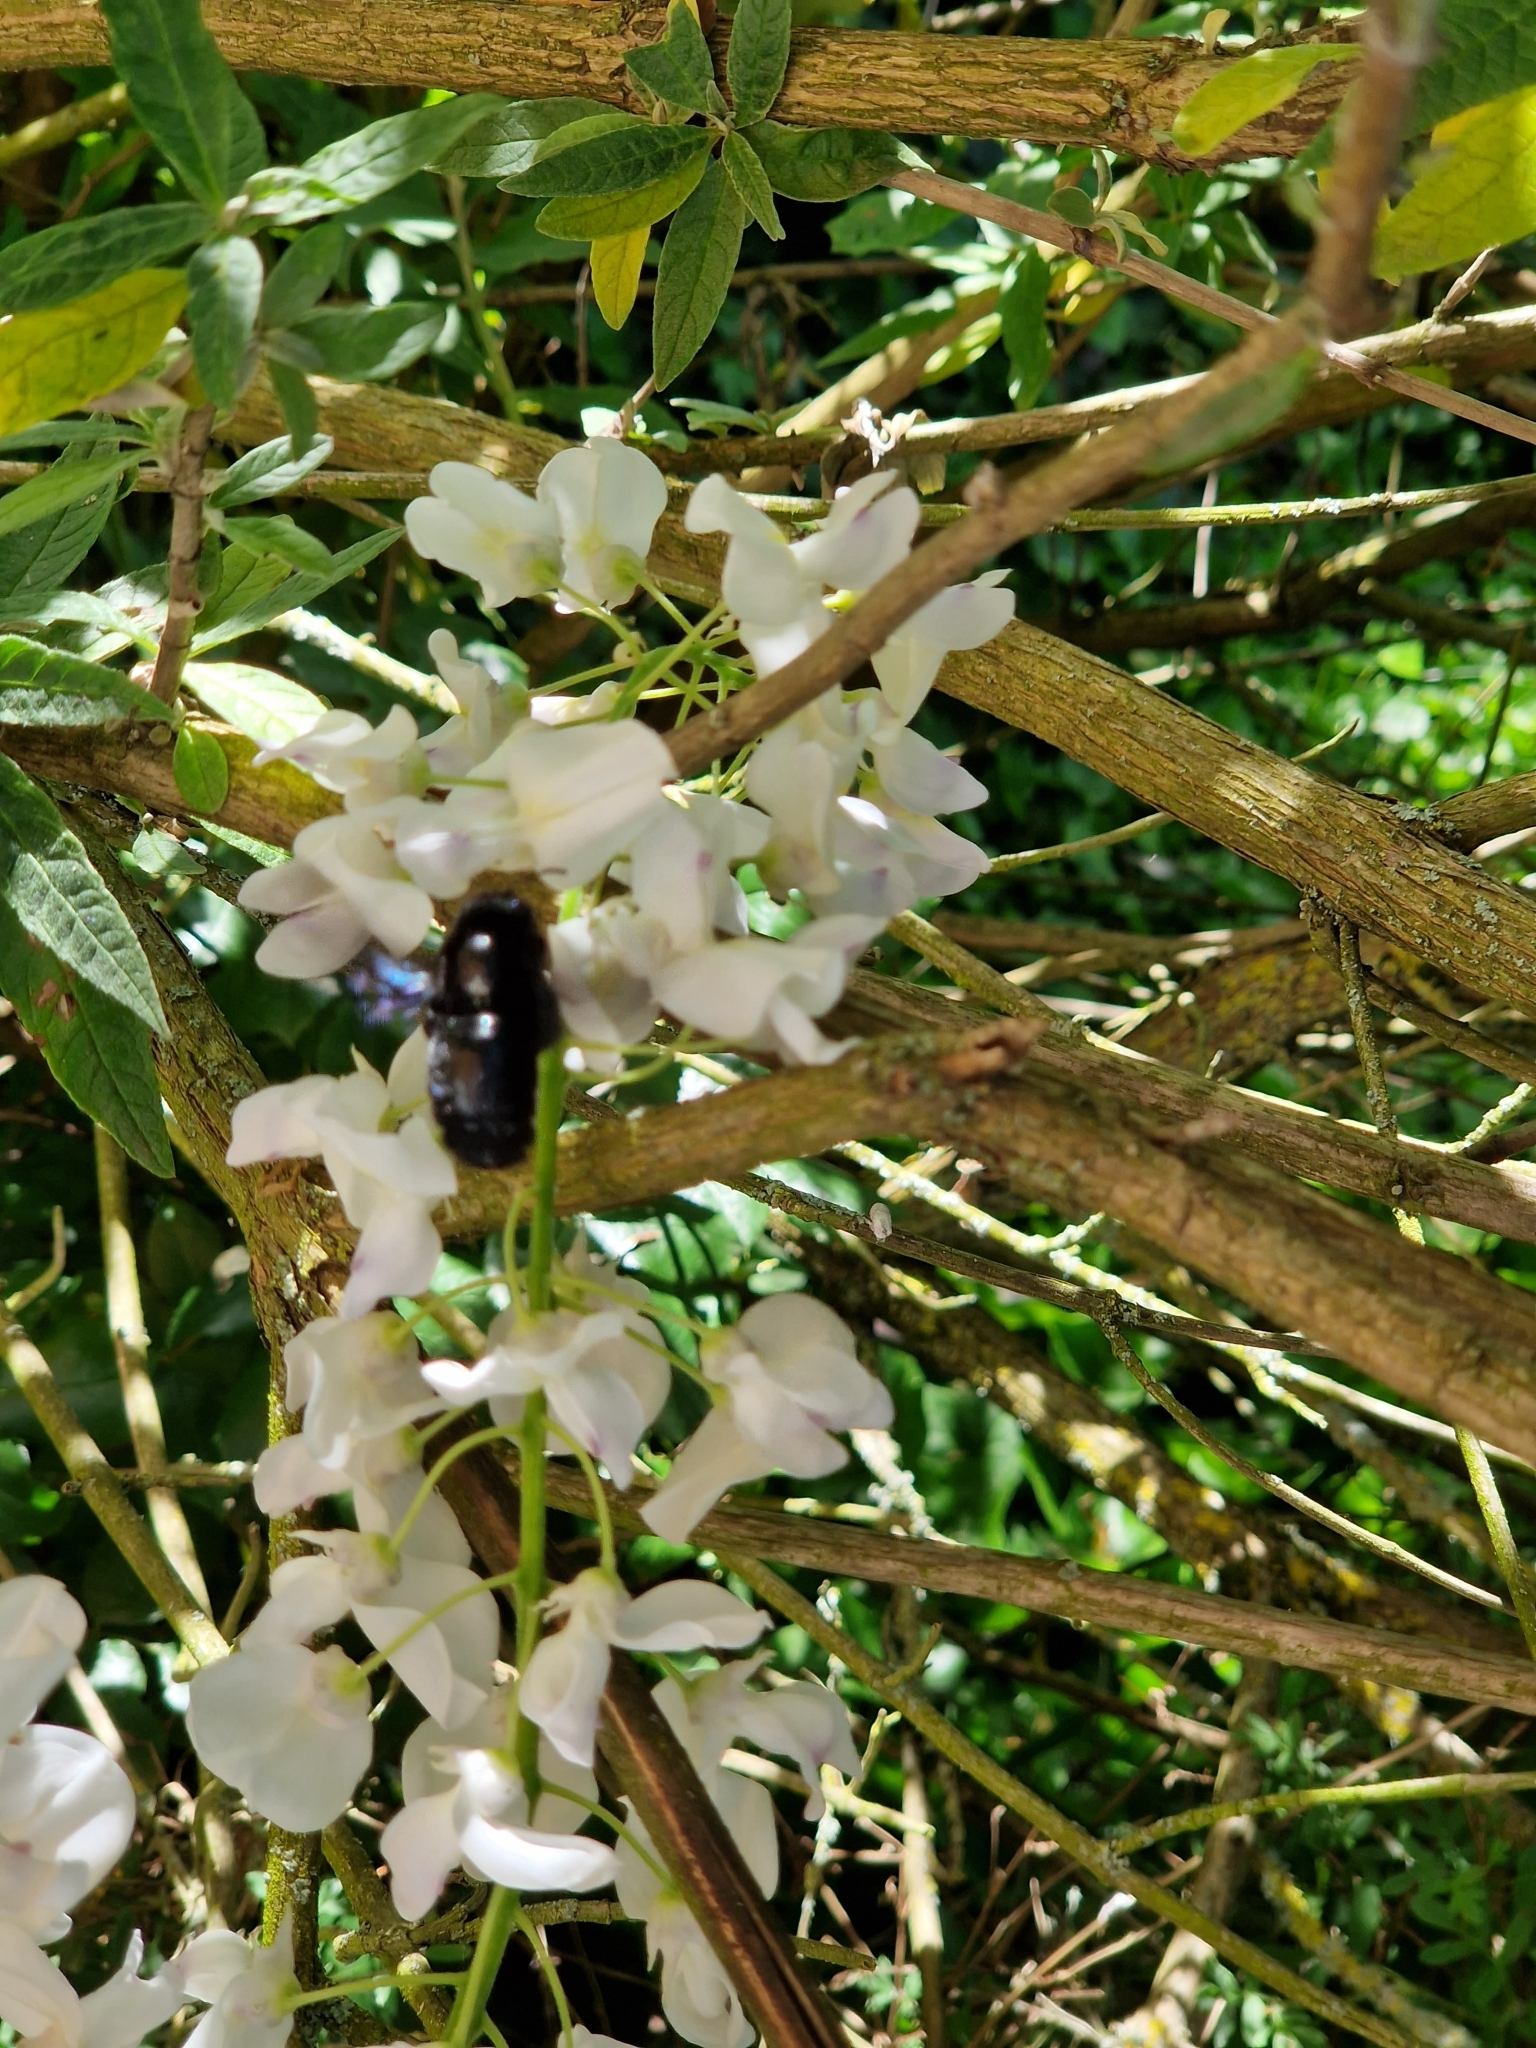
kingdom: Animalia
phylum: Arthropoda
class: Insecta
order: Hymenoptera
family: Apidae
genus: Xylocopa
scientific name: Xylocopa
